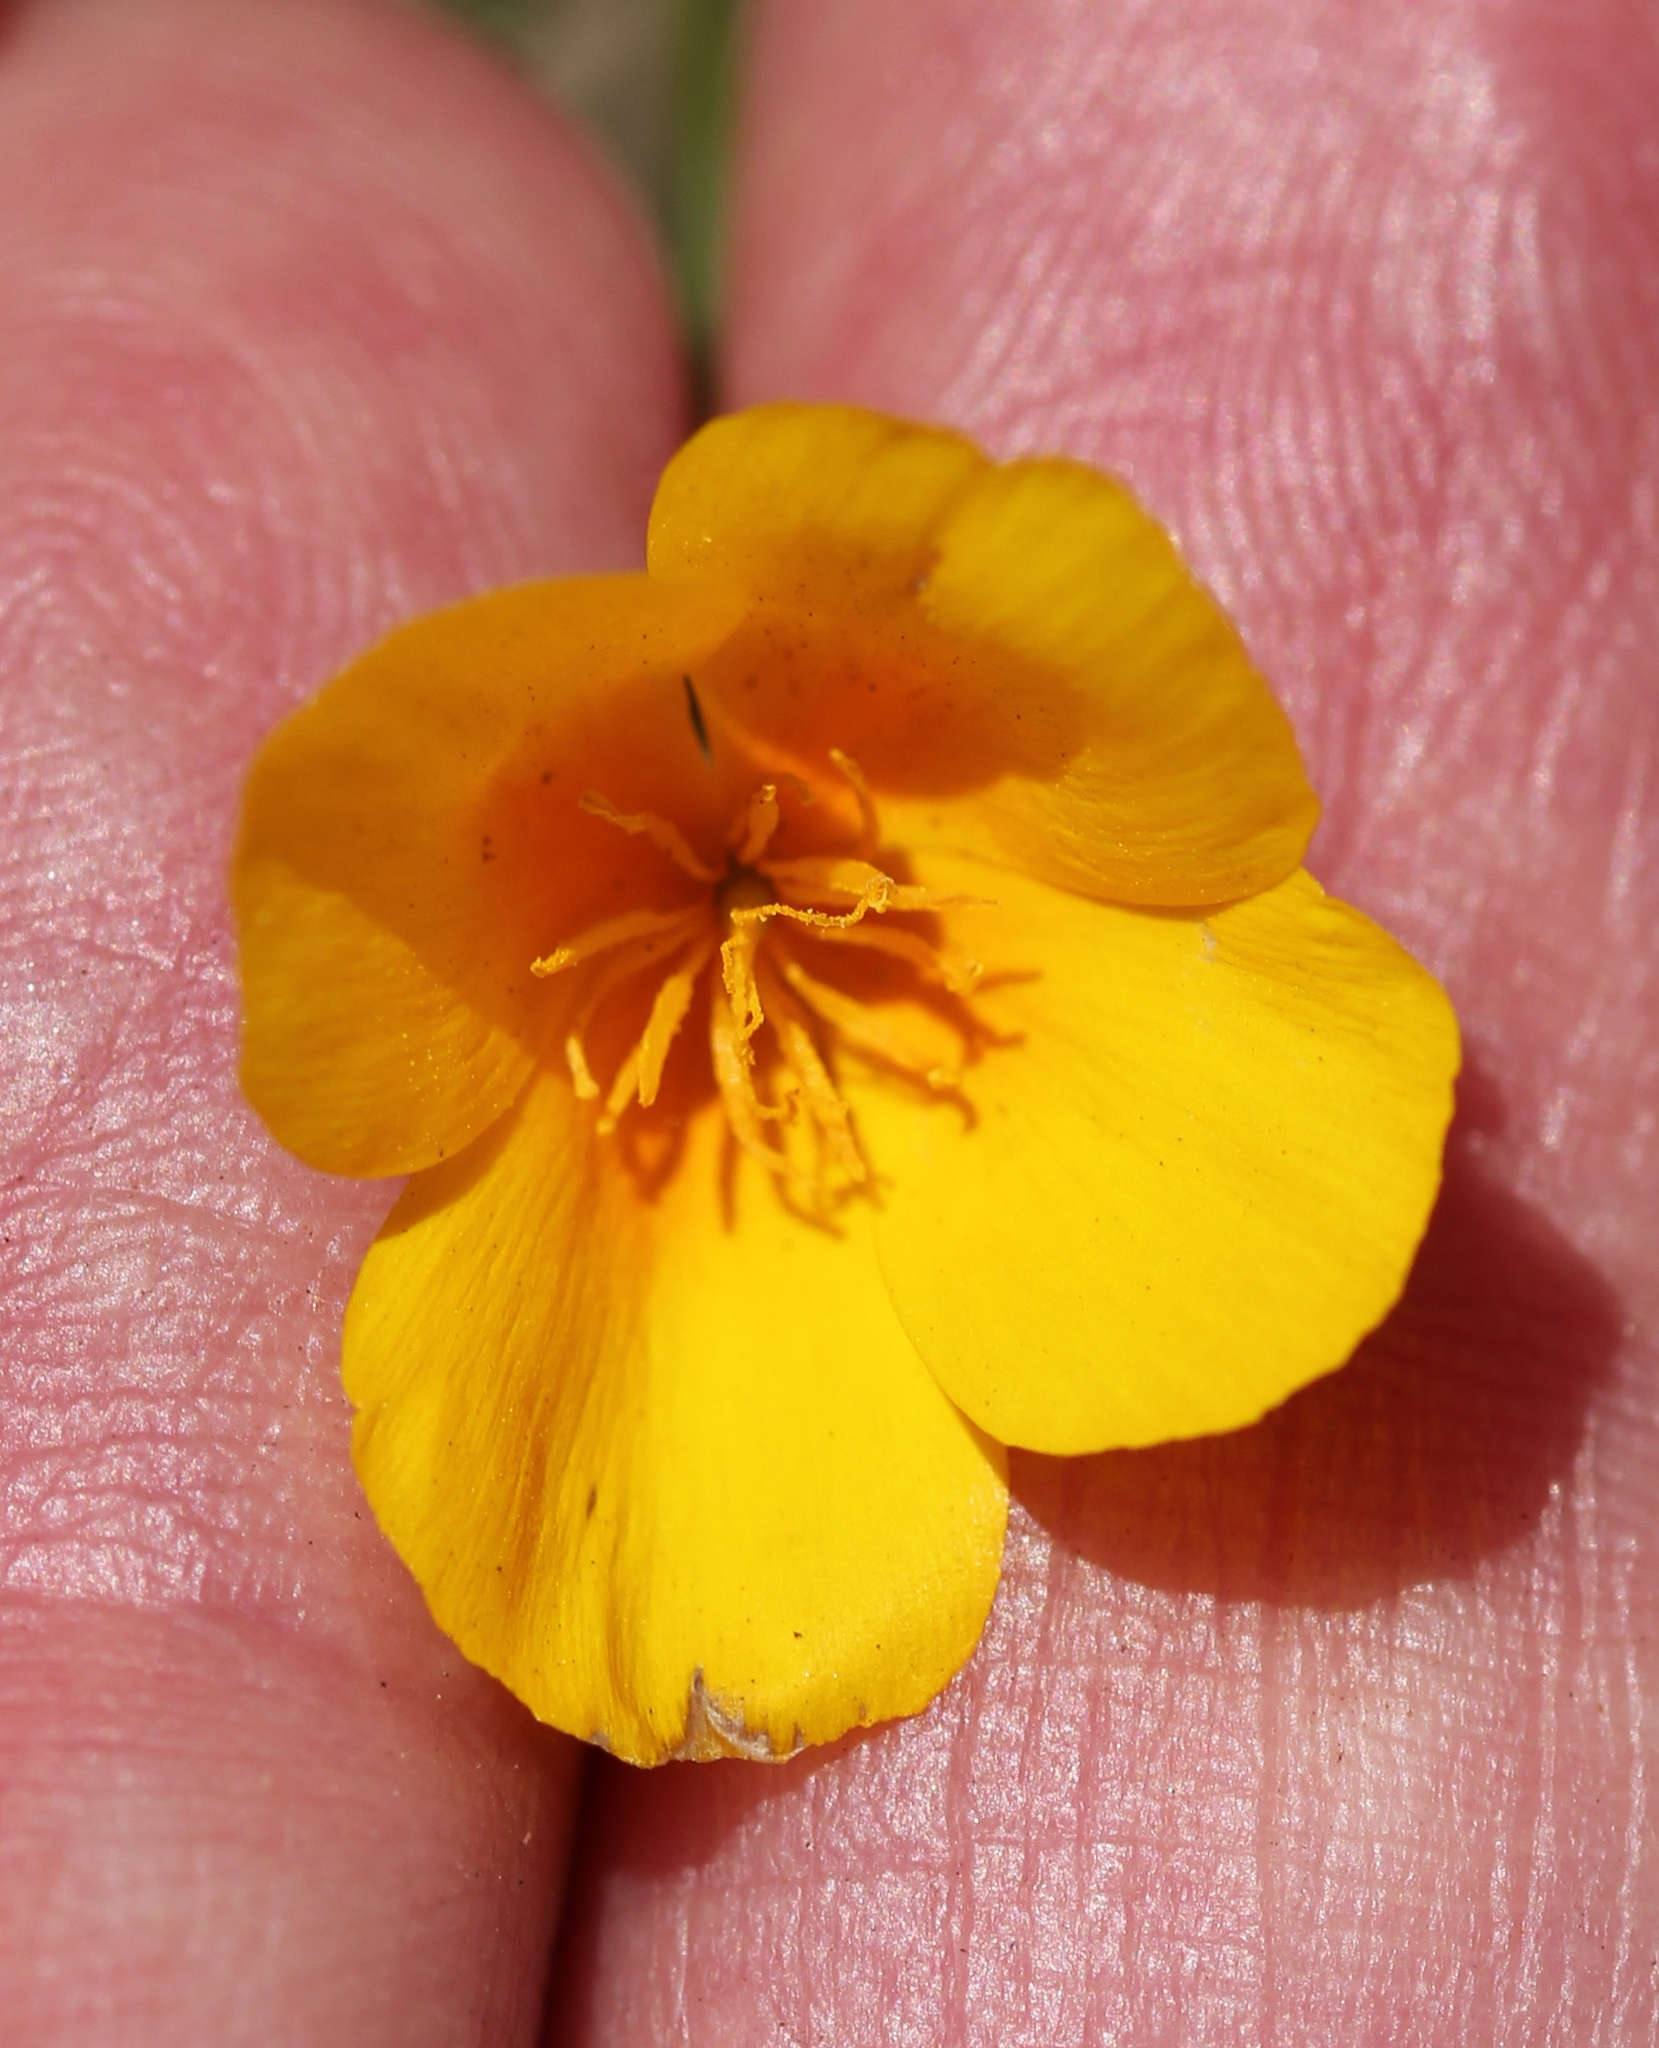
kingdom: Plantae
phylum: Tracheophyta
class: Magnoliopsida
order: Ranunculales
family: Papaveraceae
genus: Eschscholzia
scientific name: Eschscholzia californica
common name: California poppy
